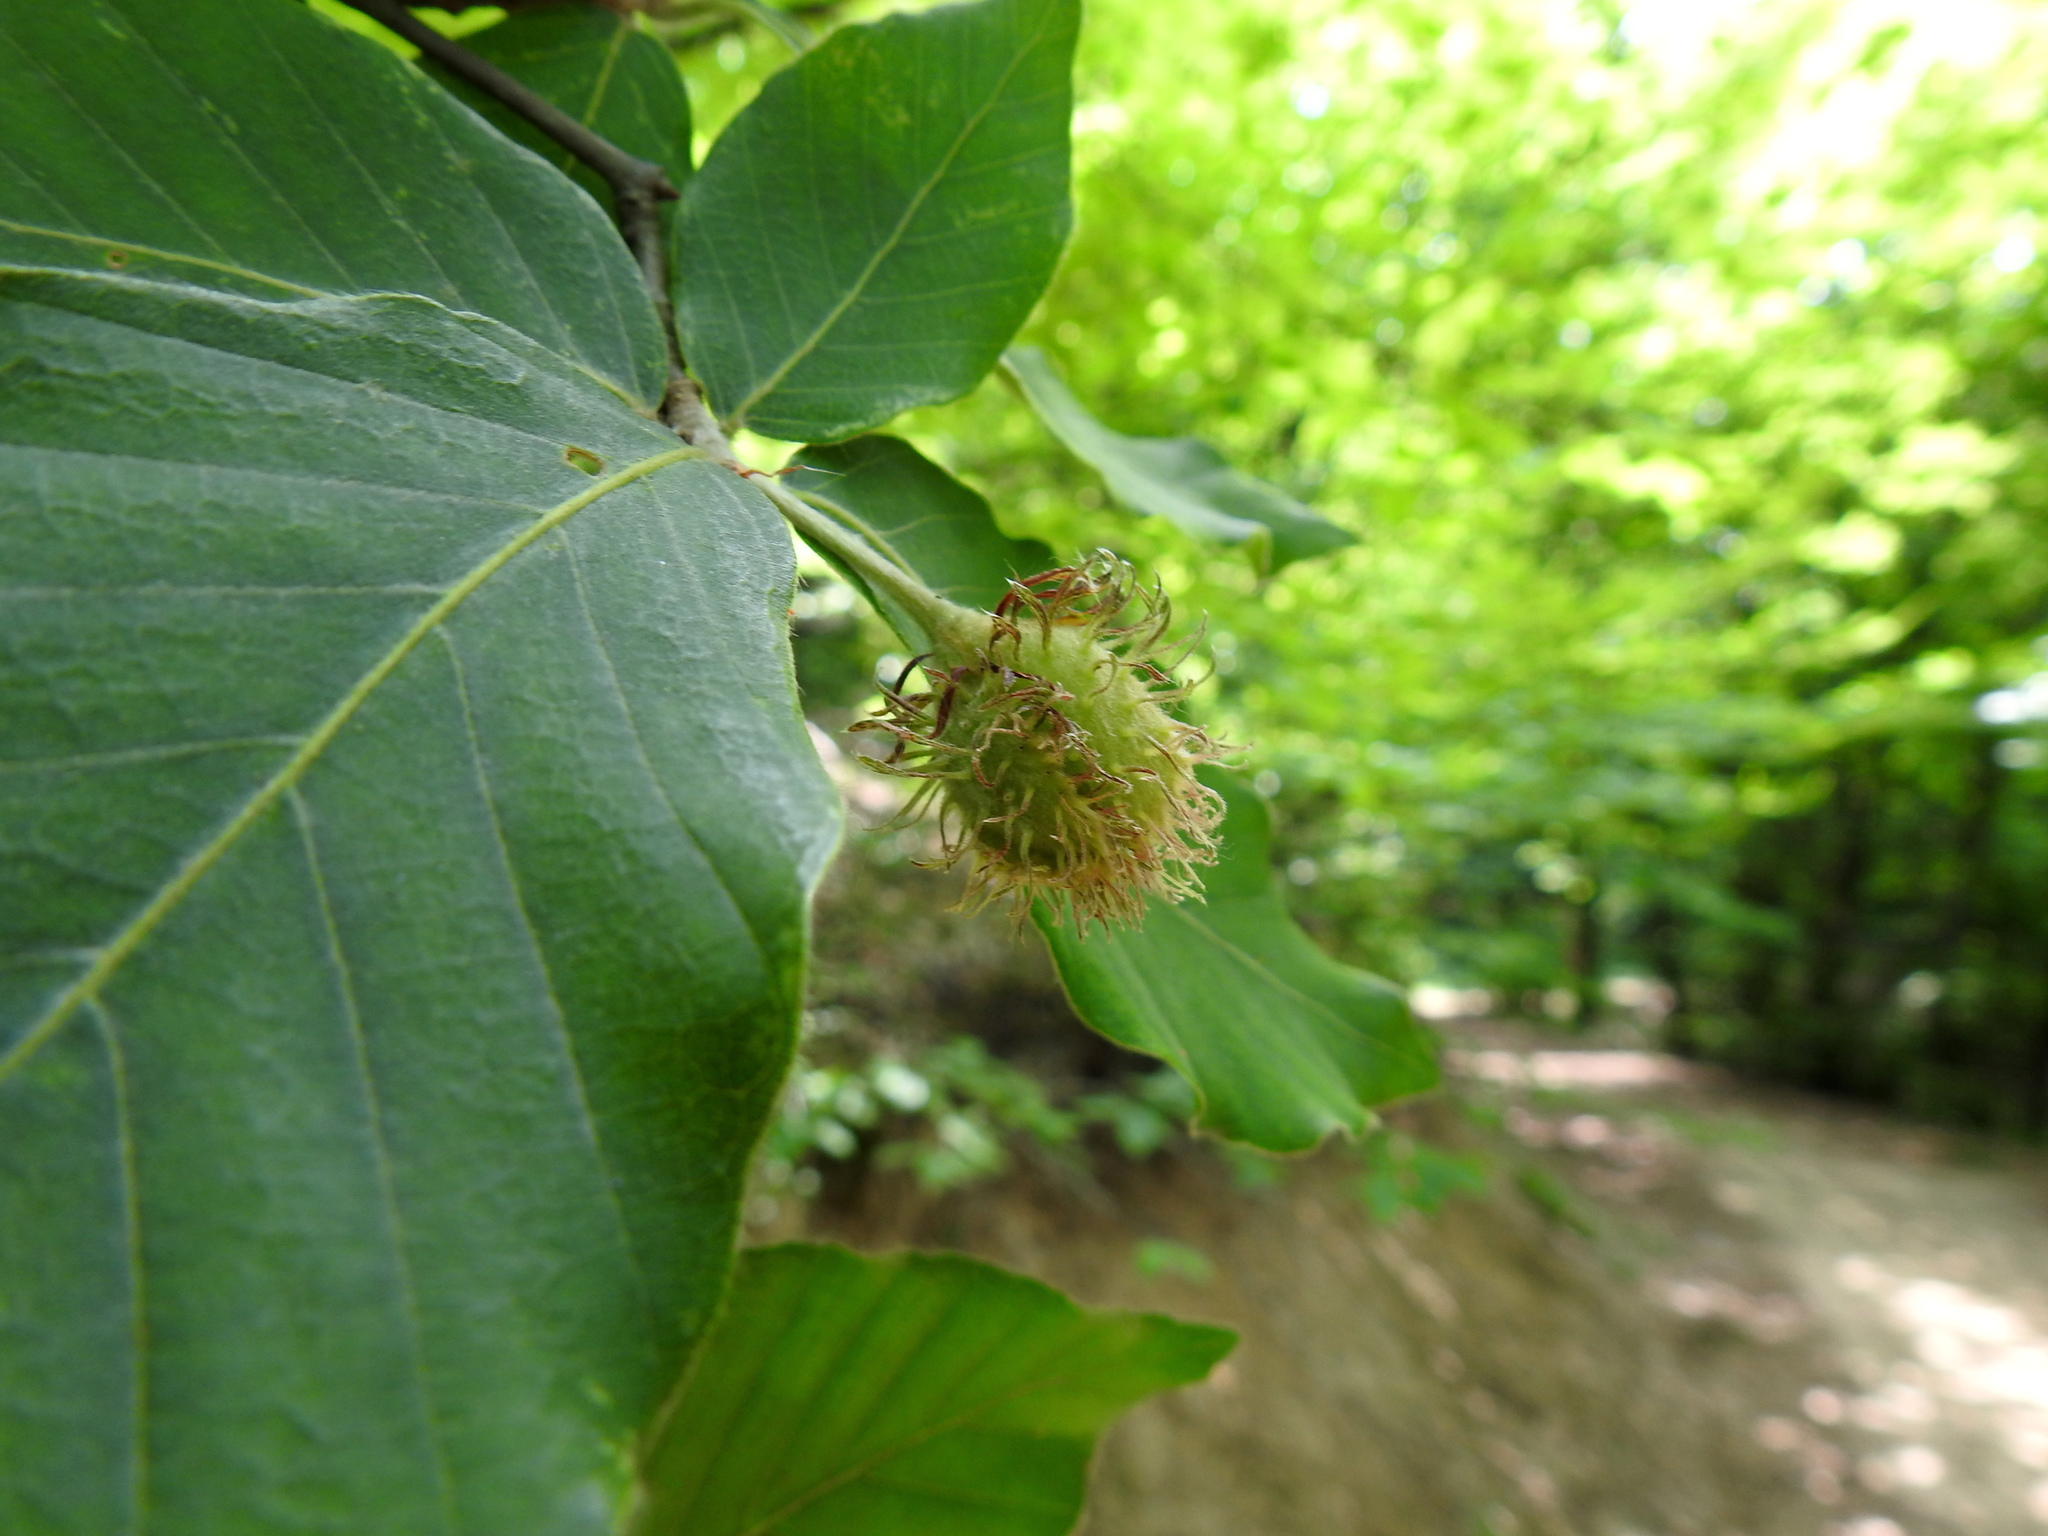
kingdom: Plantae
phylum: Tracheophyta
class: Magnoliopsida
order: Fagales
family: Fagaceae
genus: Fagus
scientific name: Fagus orientalis
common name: Oriental beech
